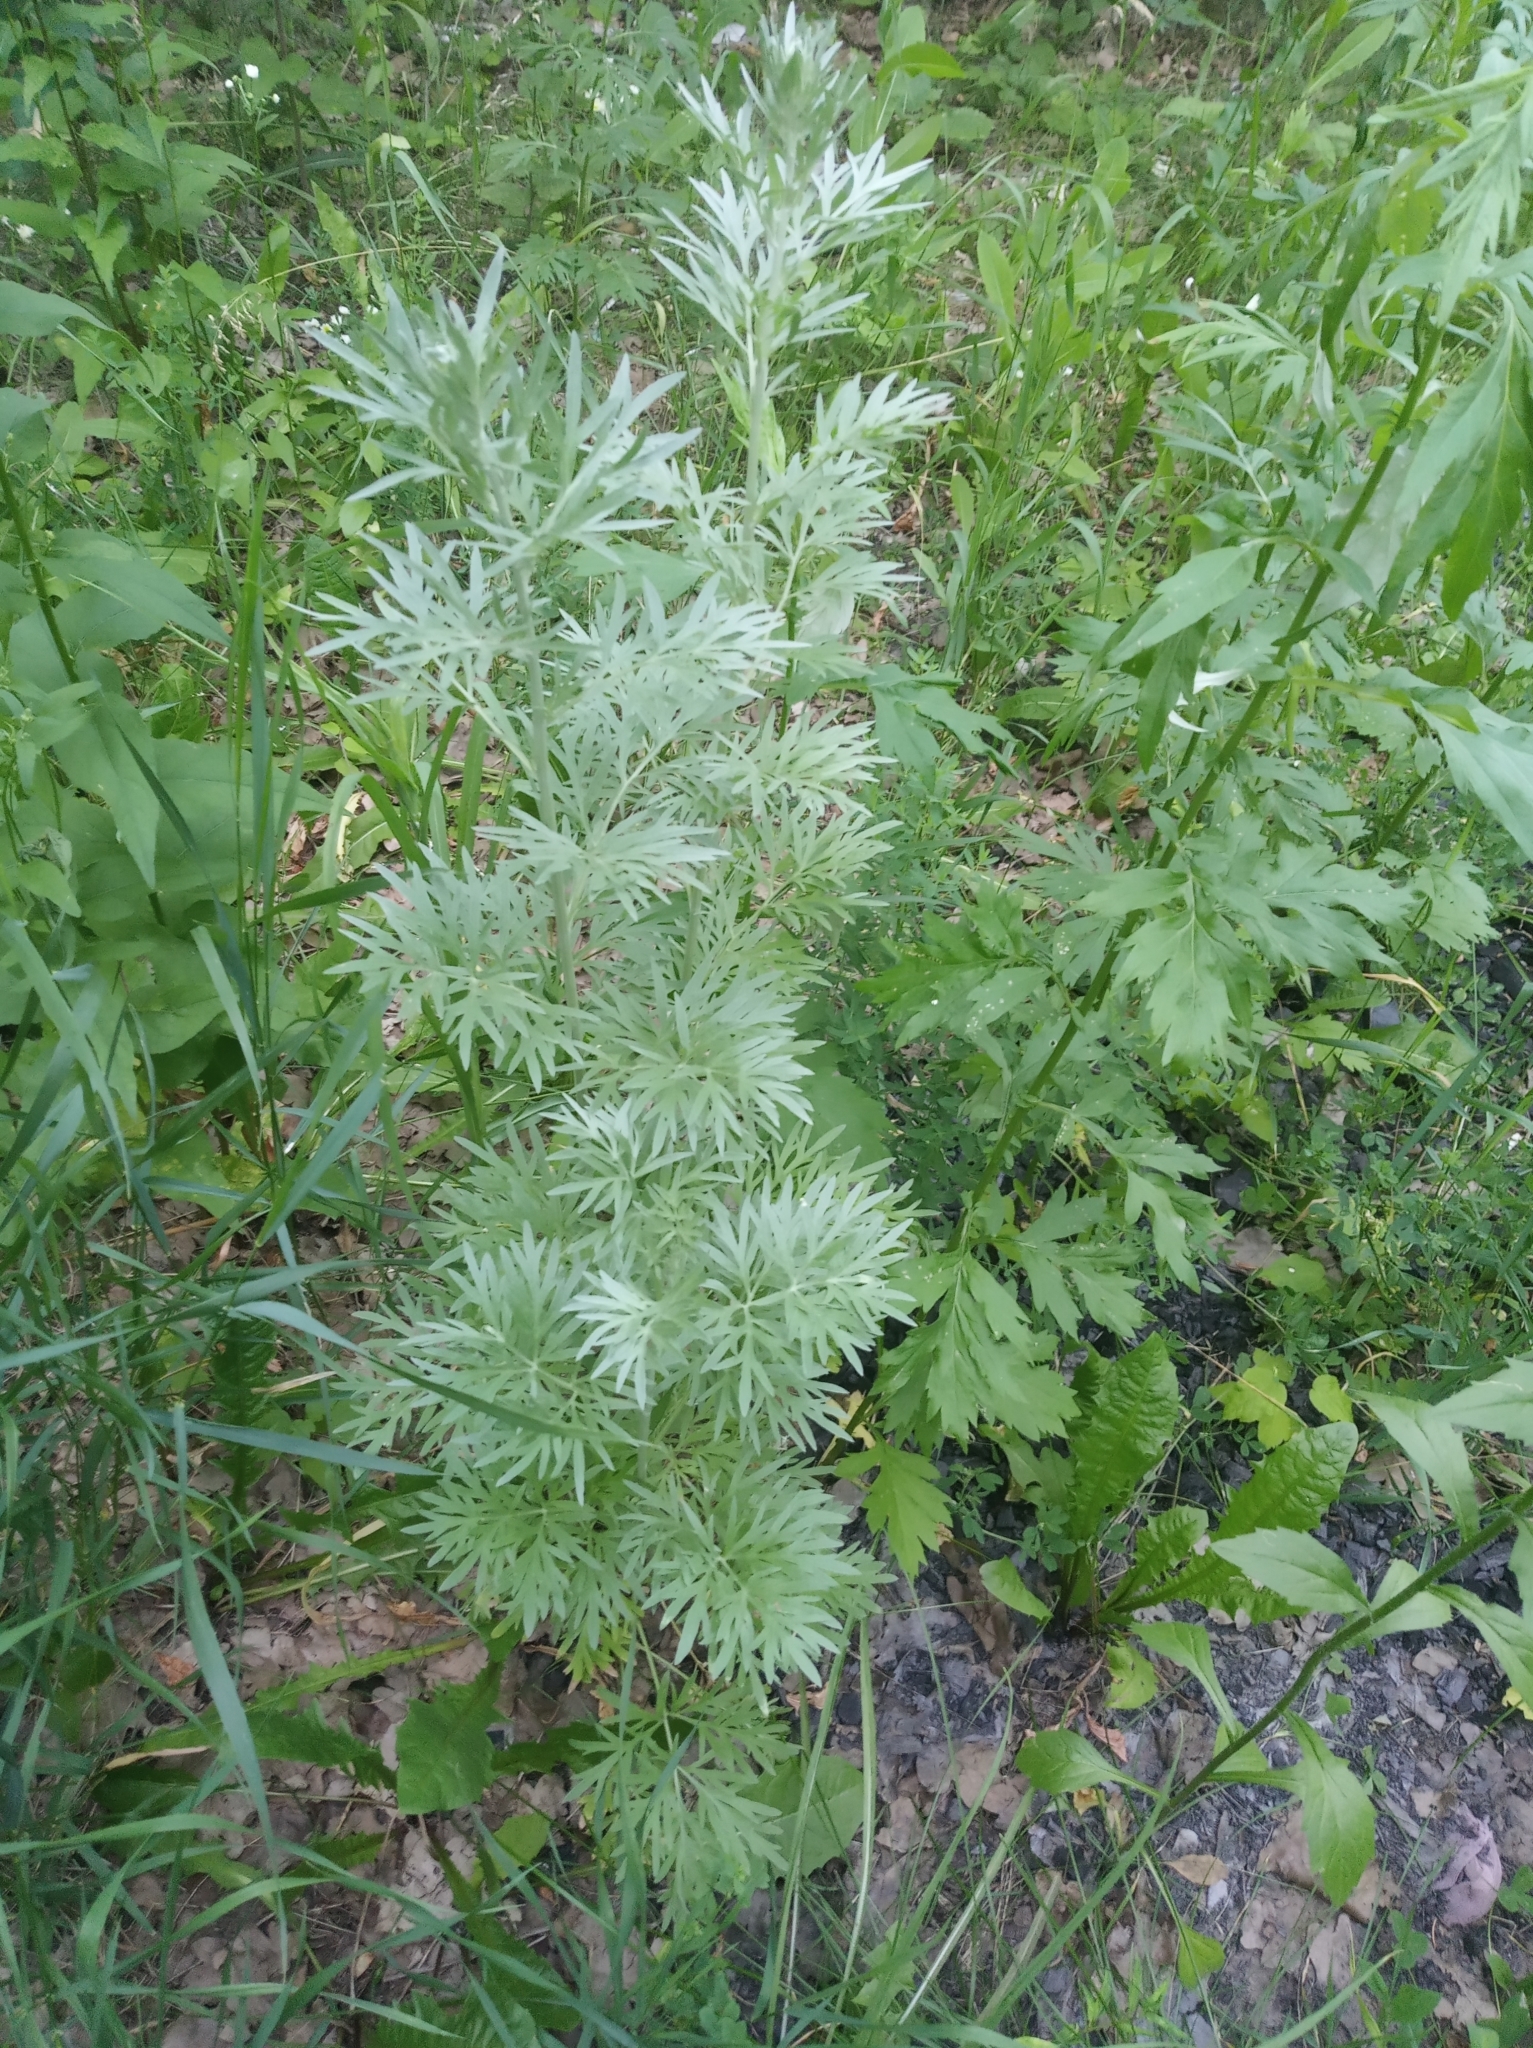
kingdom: Plantae
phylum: Tracheophyta
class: Magnoliopsida
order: Asterales
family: Asteraceae
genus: Artemisia
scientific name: Artemisia absinthium
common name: Wormwood
